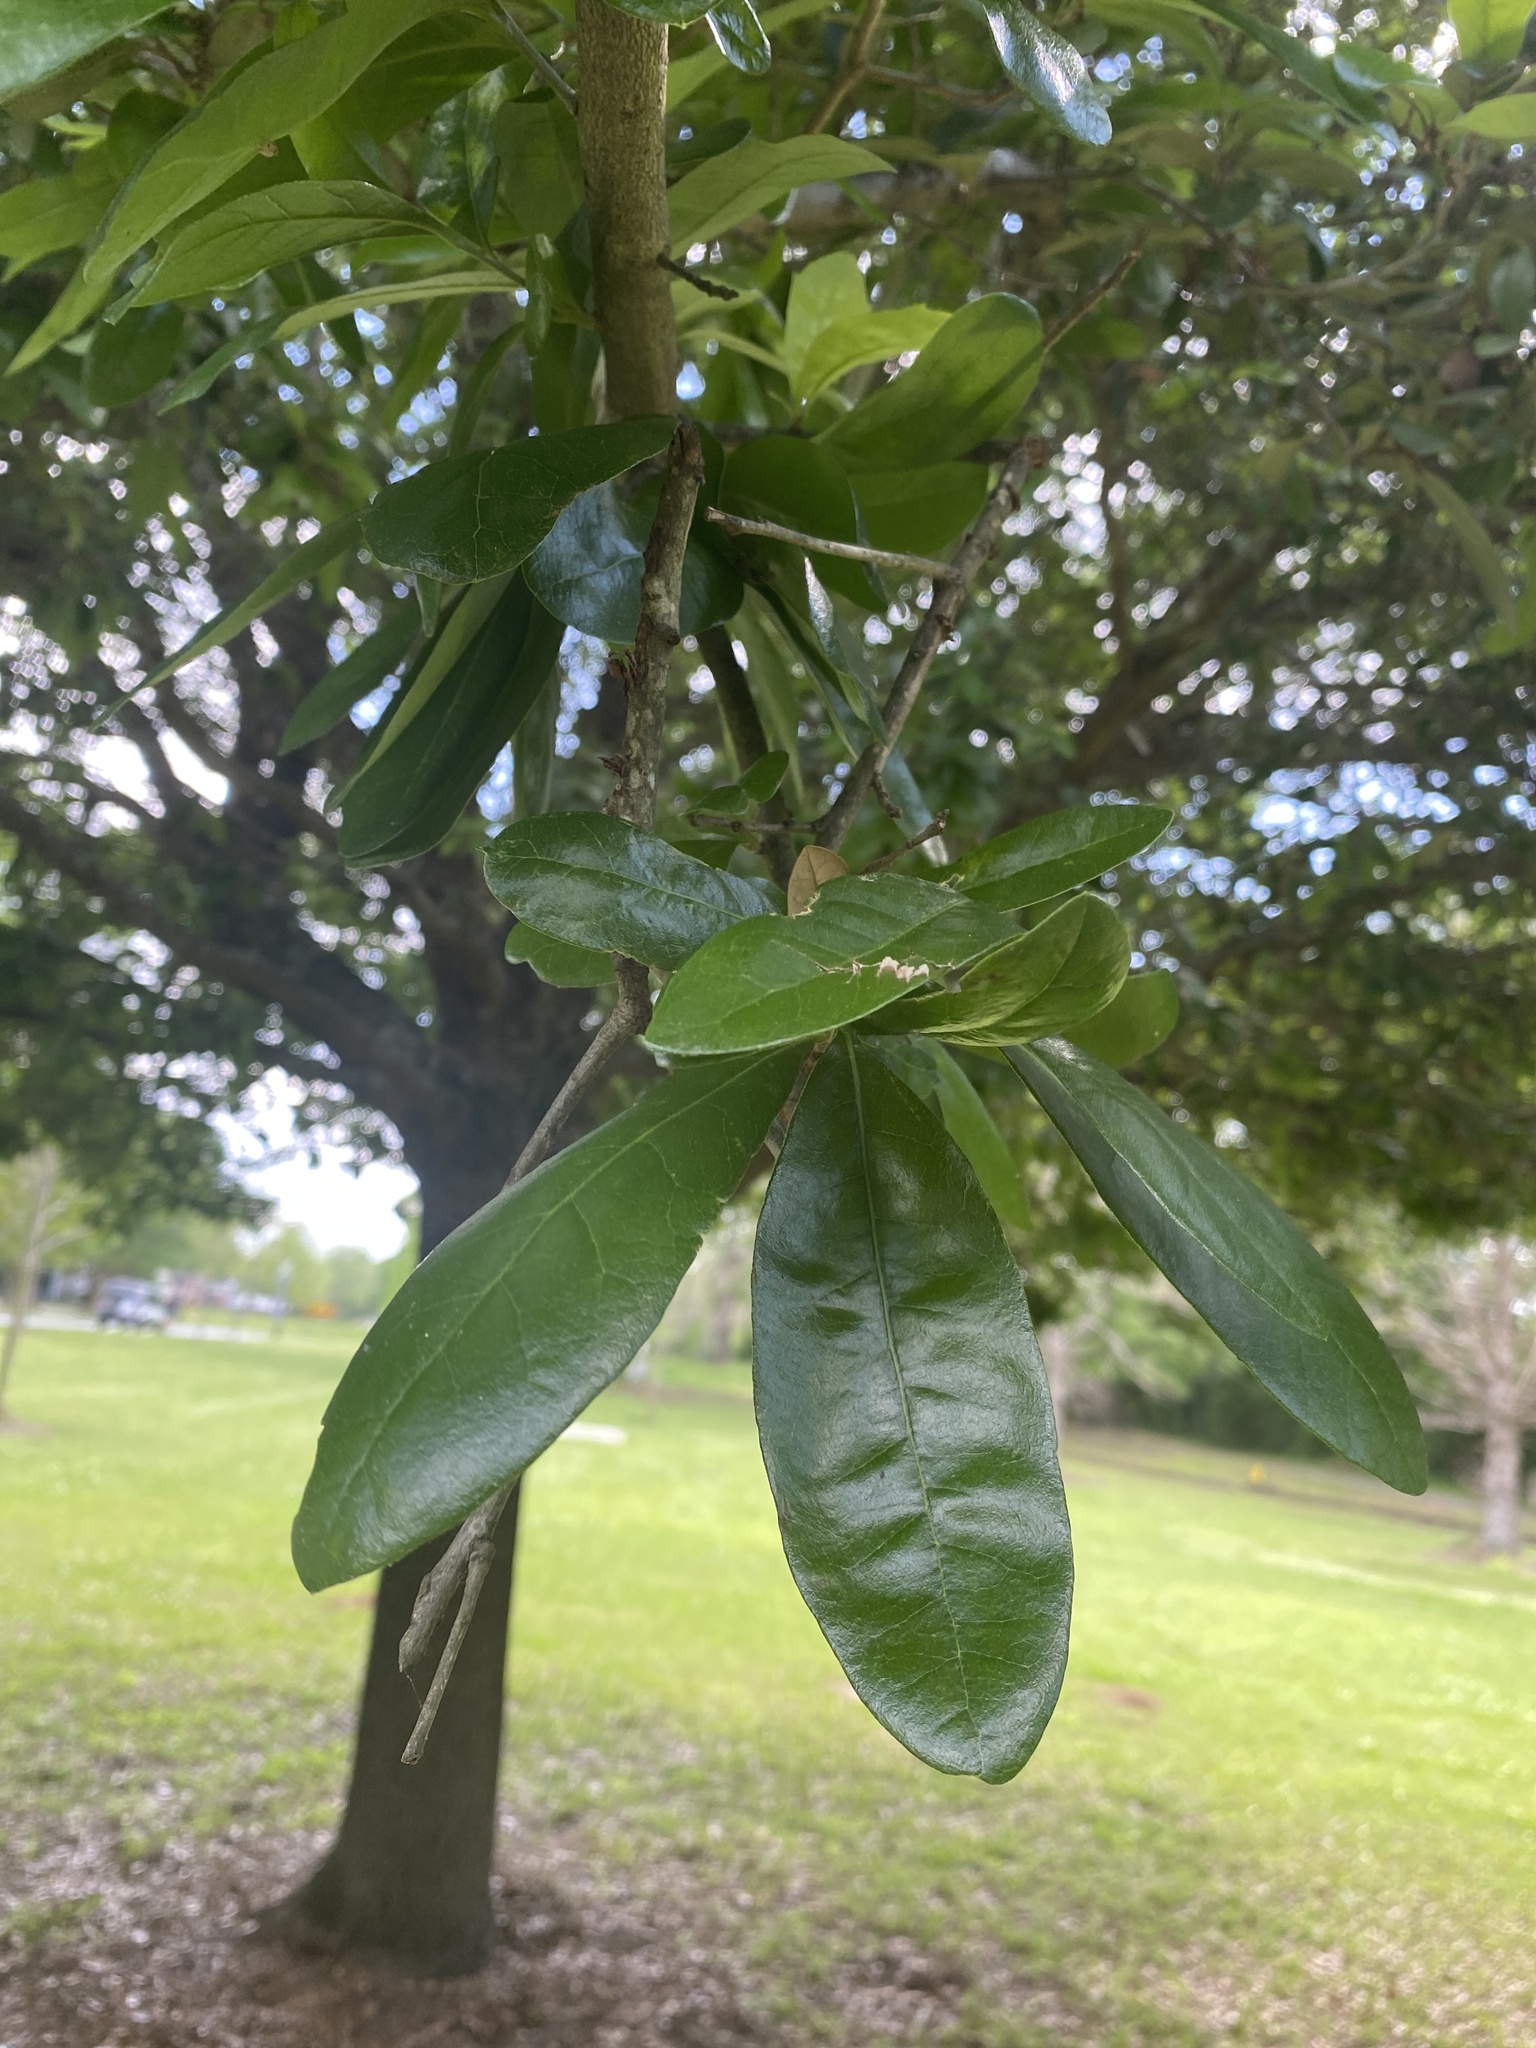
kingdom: Plantae
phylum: Tracheophyta
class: Magnoliopsida
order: Fagales
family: Fagaceae
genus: Quercus
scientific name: Quercus virginiana
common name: Southern live oak
